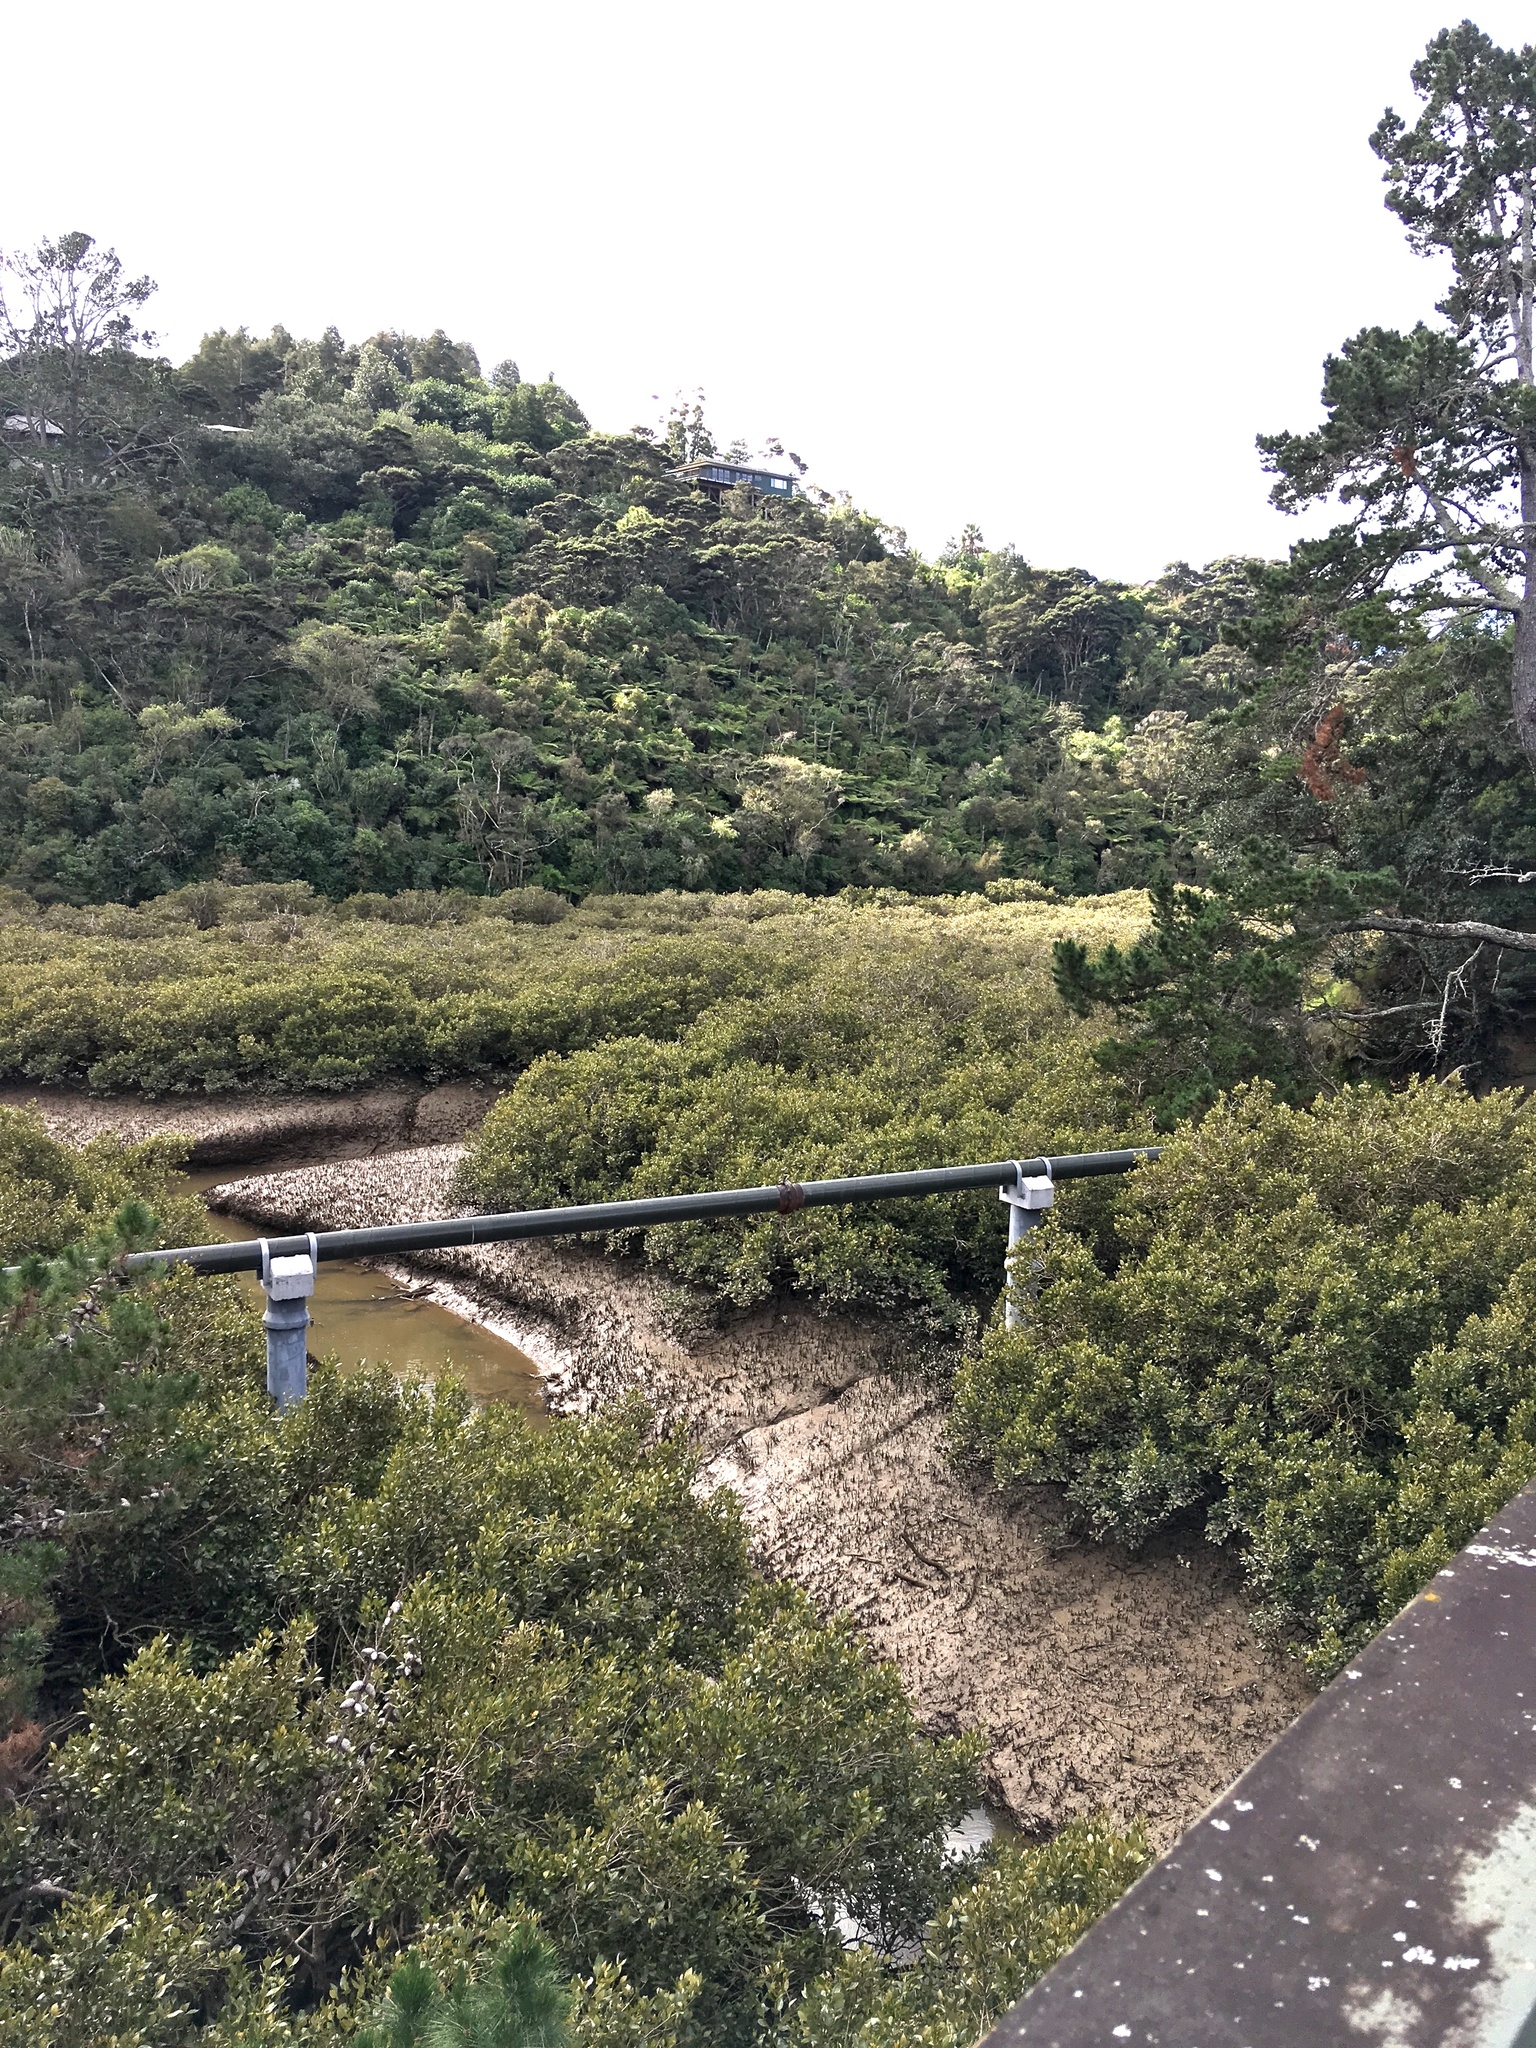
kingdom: Plantae
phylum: Tracheophyta
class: Pinopsida
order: Pinales
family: Pinaceae
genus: Pinus
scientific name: Pinus radiata
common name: Monterey pine
